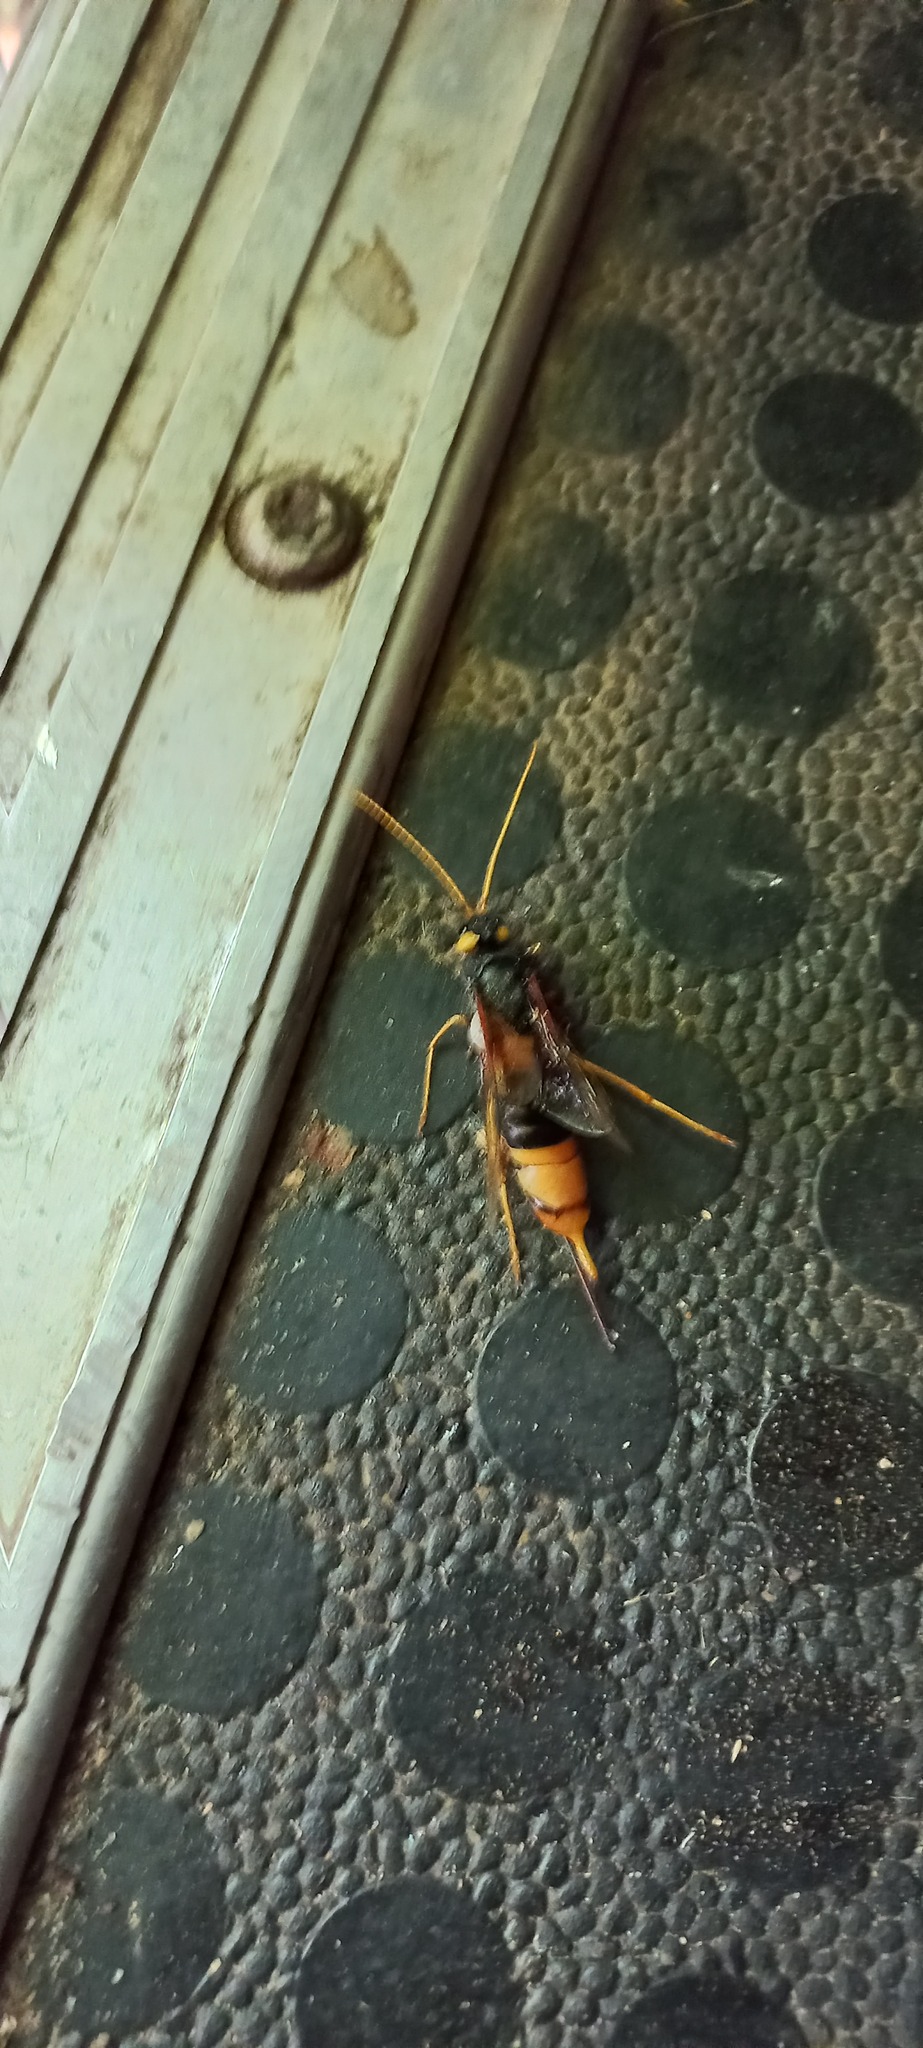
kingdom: Animalia
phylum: Arthropoda
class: Insecta
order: Hymenoptera
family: Siricidae
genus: Urocerus
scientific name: Urocerus gigas
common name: Giant woodwasp
